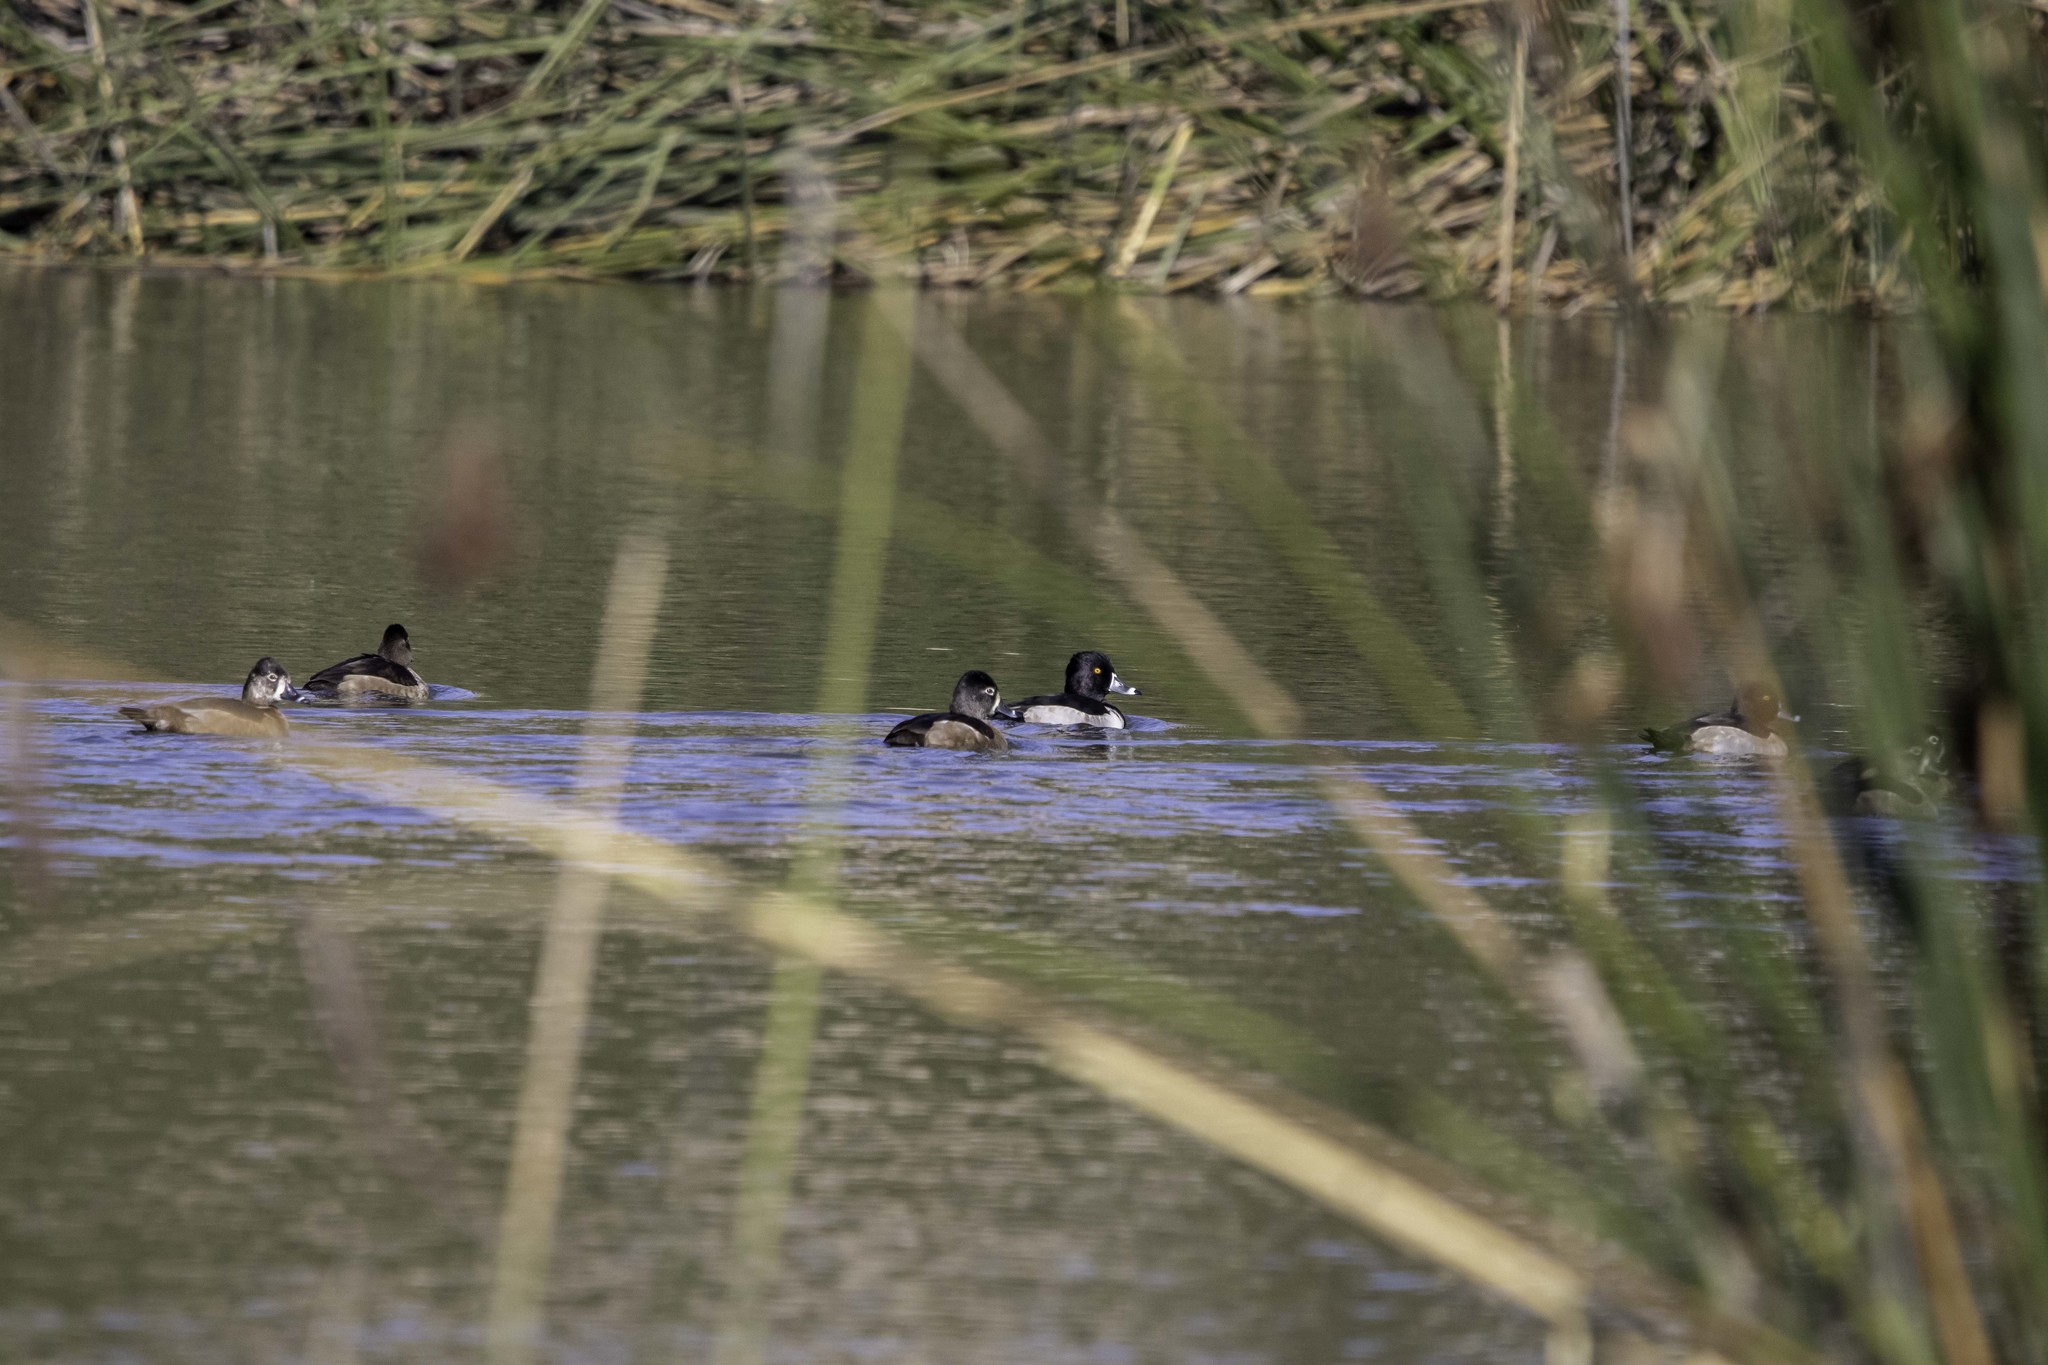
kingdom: Animalia
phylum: Chordata
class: Aves
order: Anseriformes
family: Anatidae
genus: Aythya
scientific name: Aythya collaris
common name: Ring-necked duck
